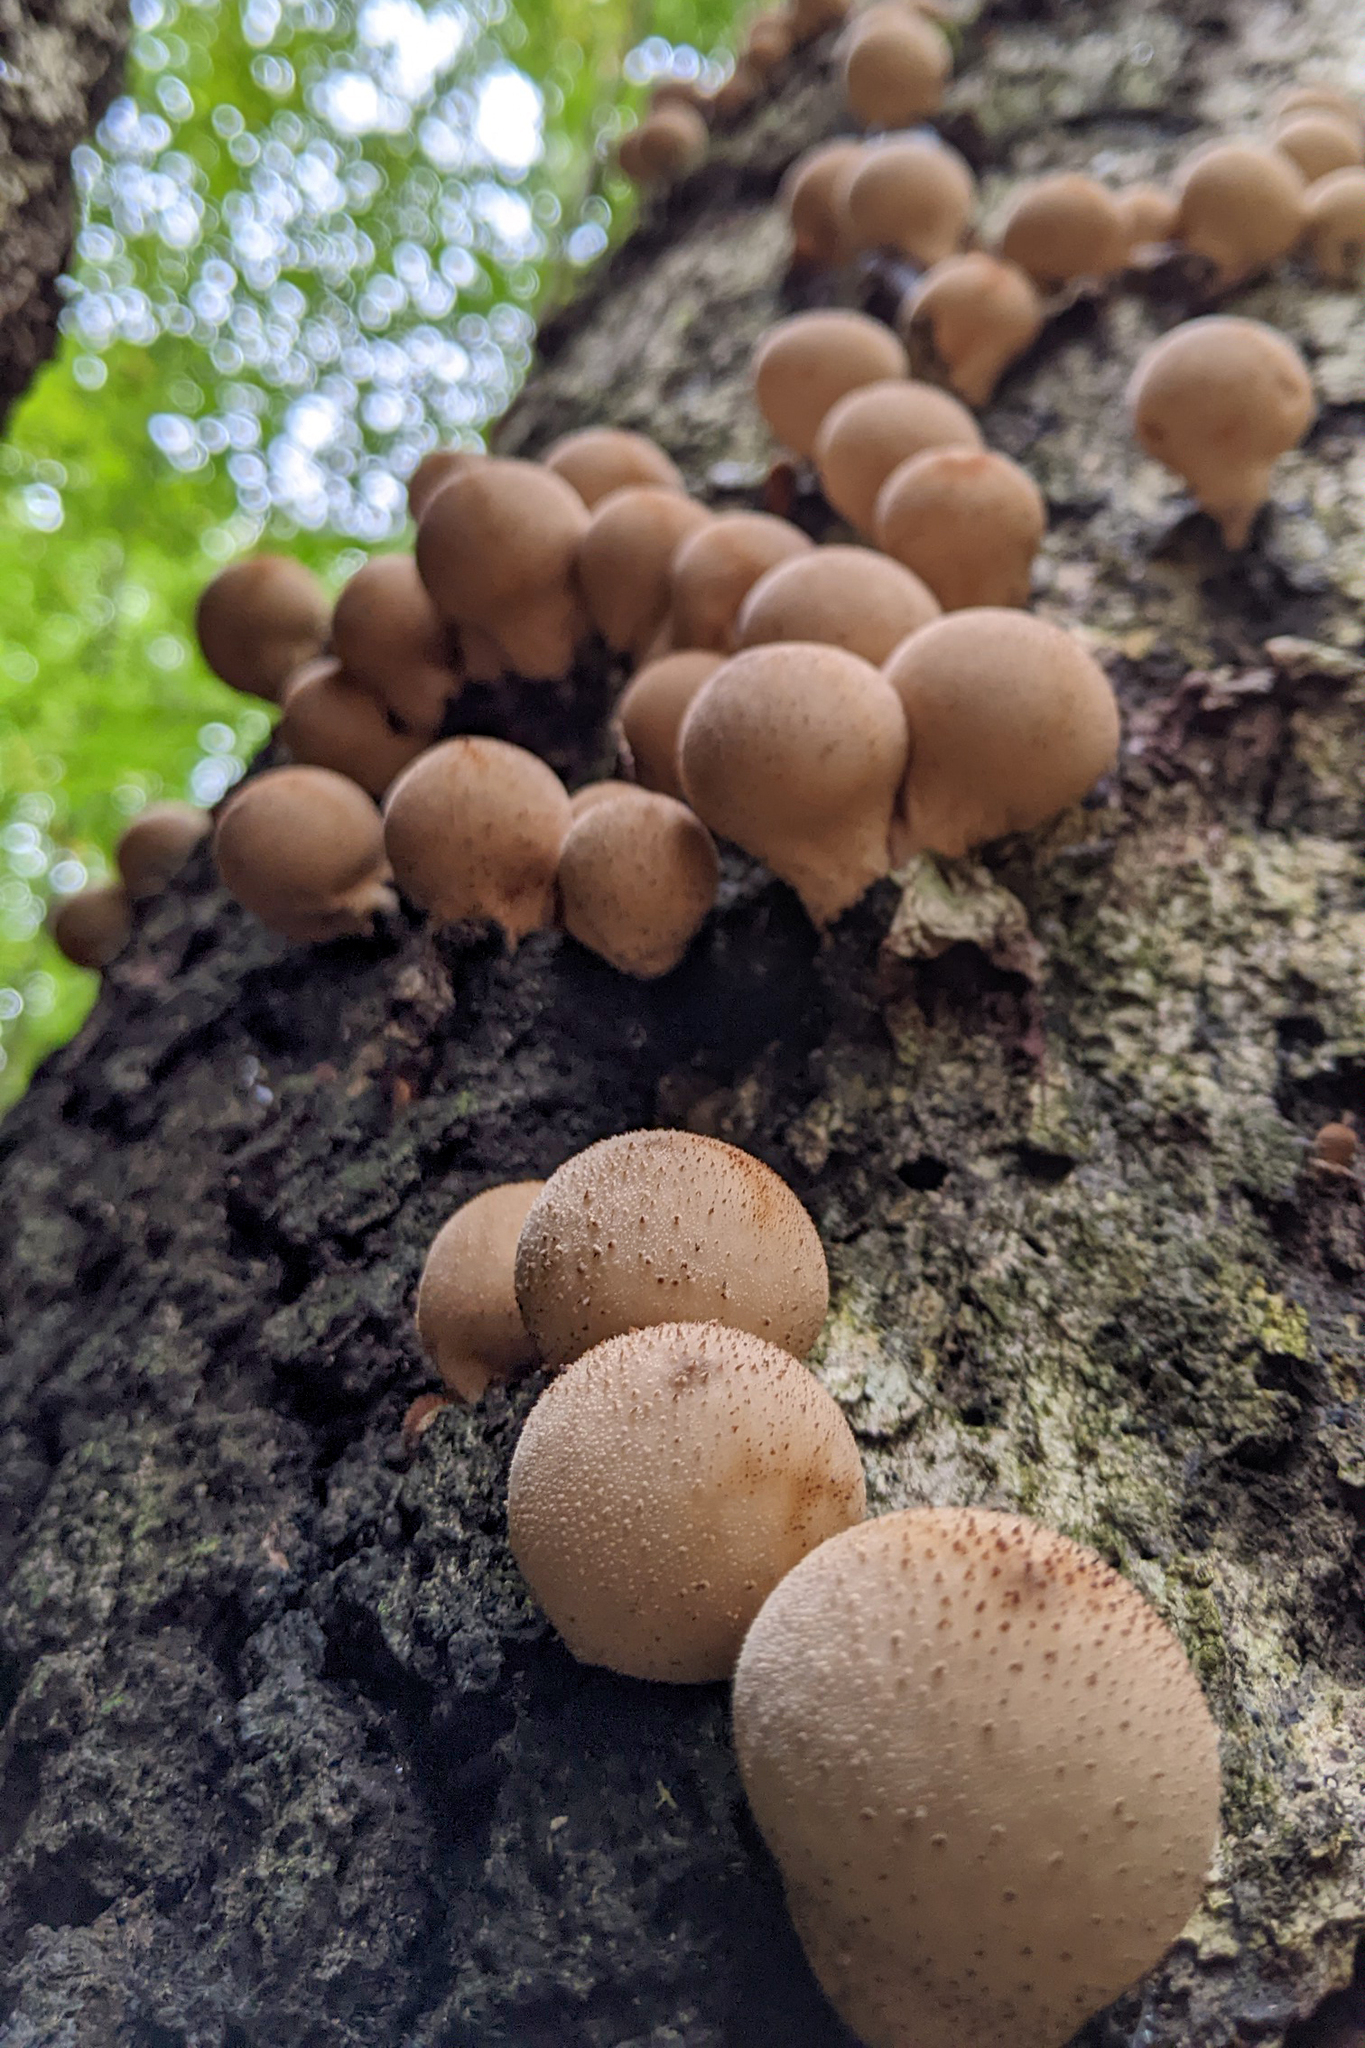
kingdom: Fungi
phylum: Basidiomycota
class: Agaricomycetes
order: Agaricales
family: Lycoperdaceae
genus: Apioperdon
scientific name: Apioperdon pyriforme
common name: Pear-shaped puffball
